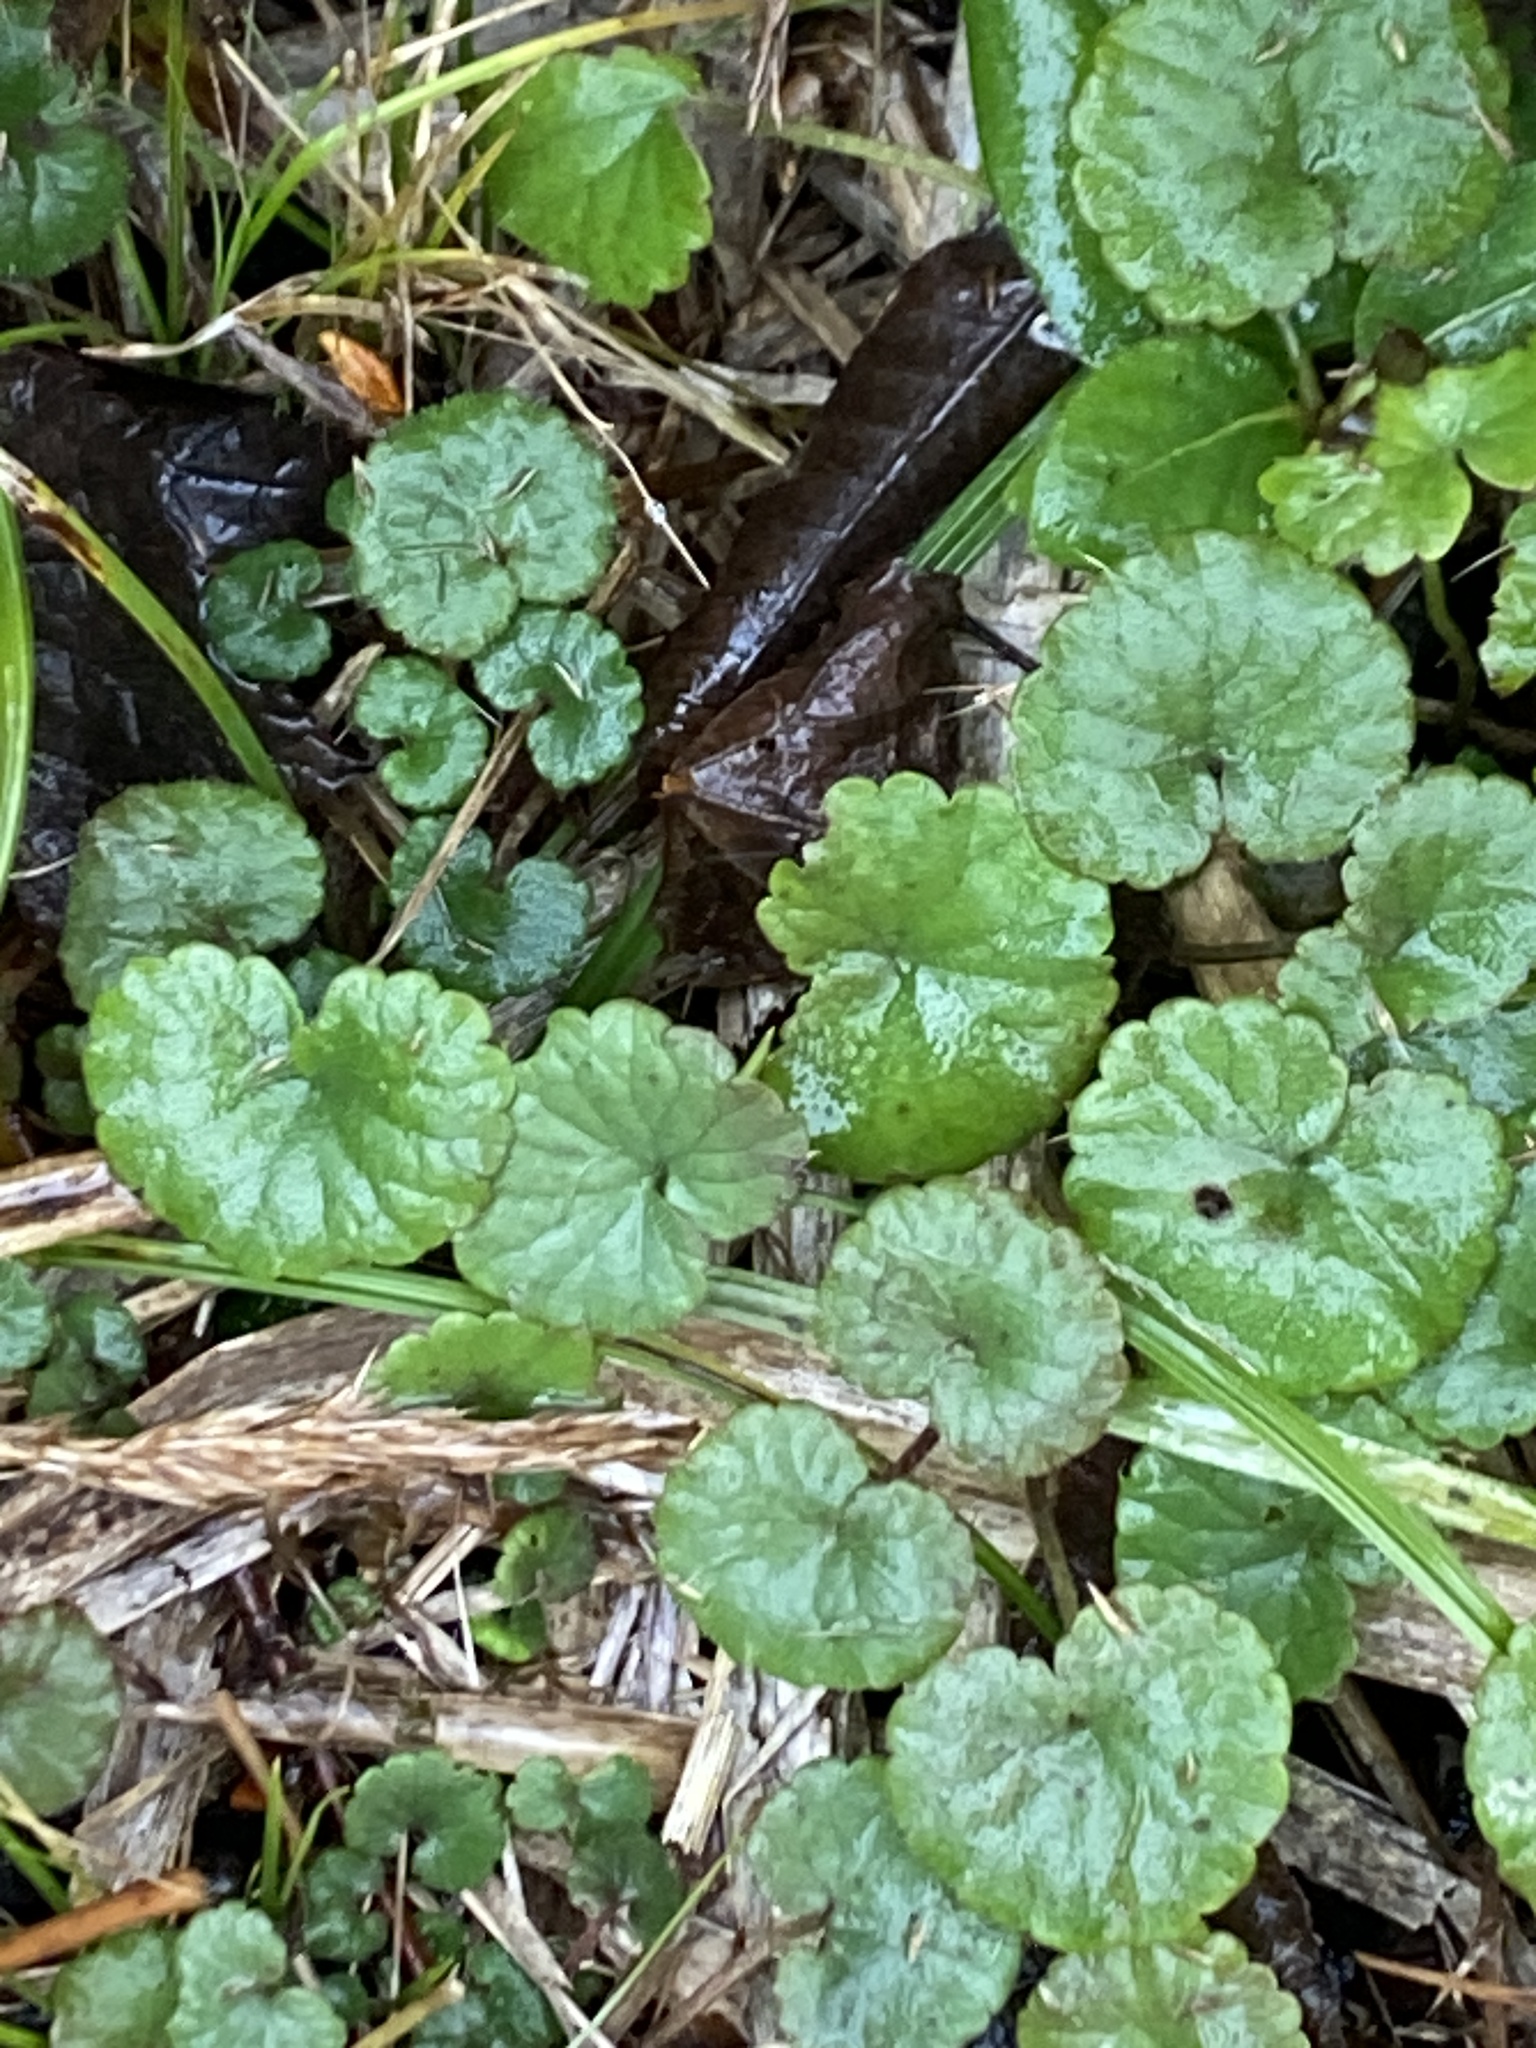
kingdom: Plantae
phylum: Tracheophyta
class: Magnoliopsida
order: Lamiales
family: Lamiaceae
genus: Glechoma
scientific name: Glechoma hederacea
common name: Ground ivy
